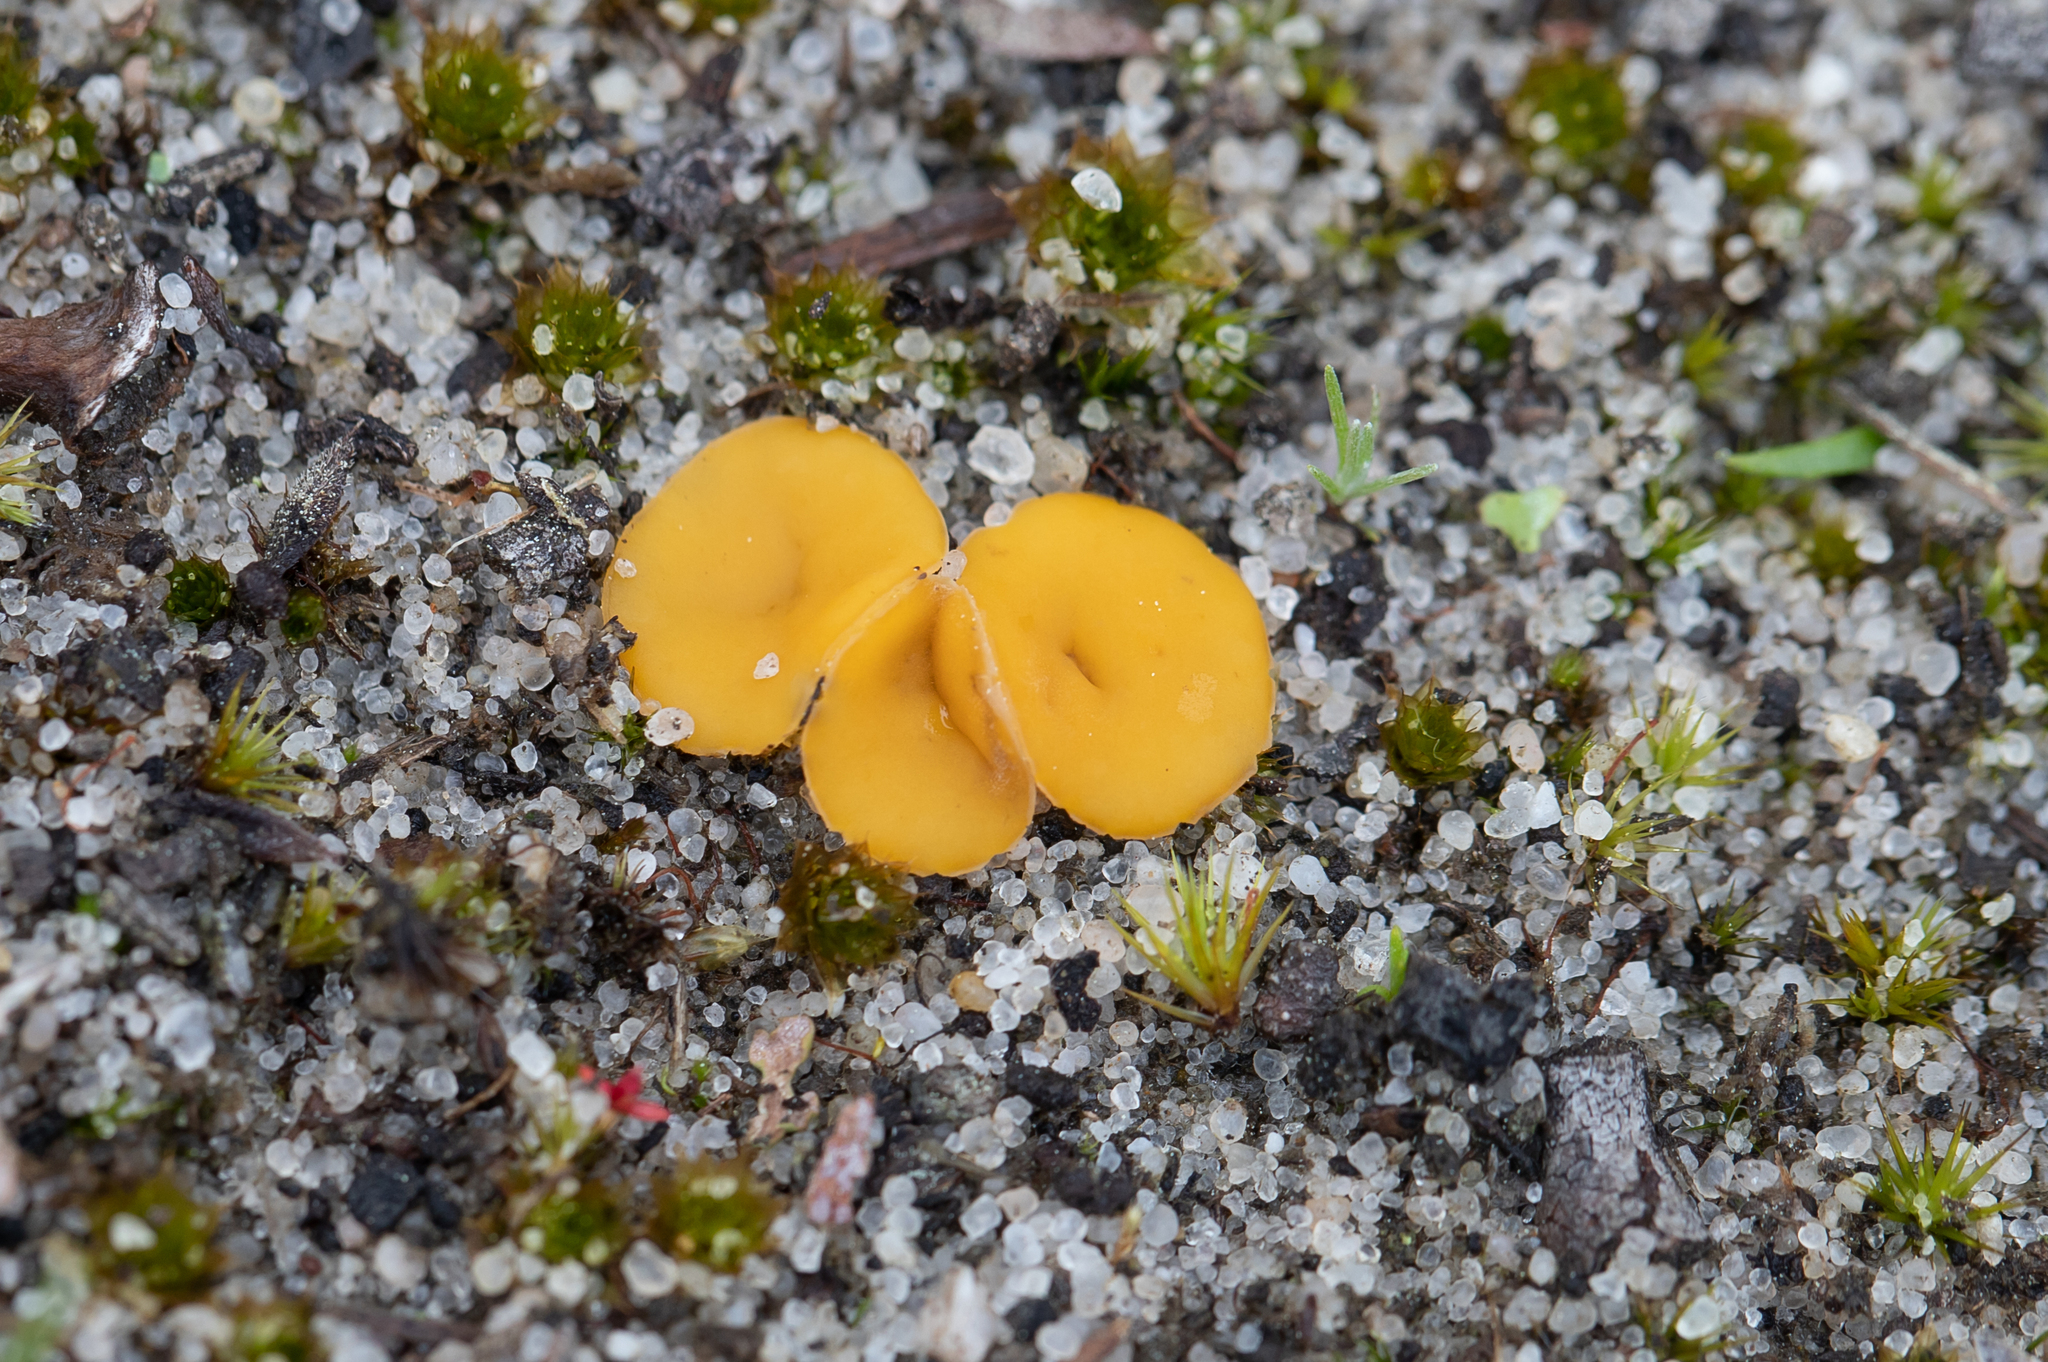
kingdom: Fungi
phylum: Ascomycota
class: Leotiomycetes
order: Helotiales
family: Helotiaceae
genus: Phaeohelotium
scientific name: Phaeohelotium baileyanum
